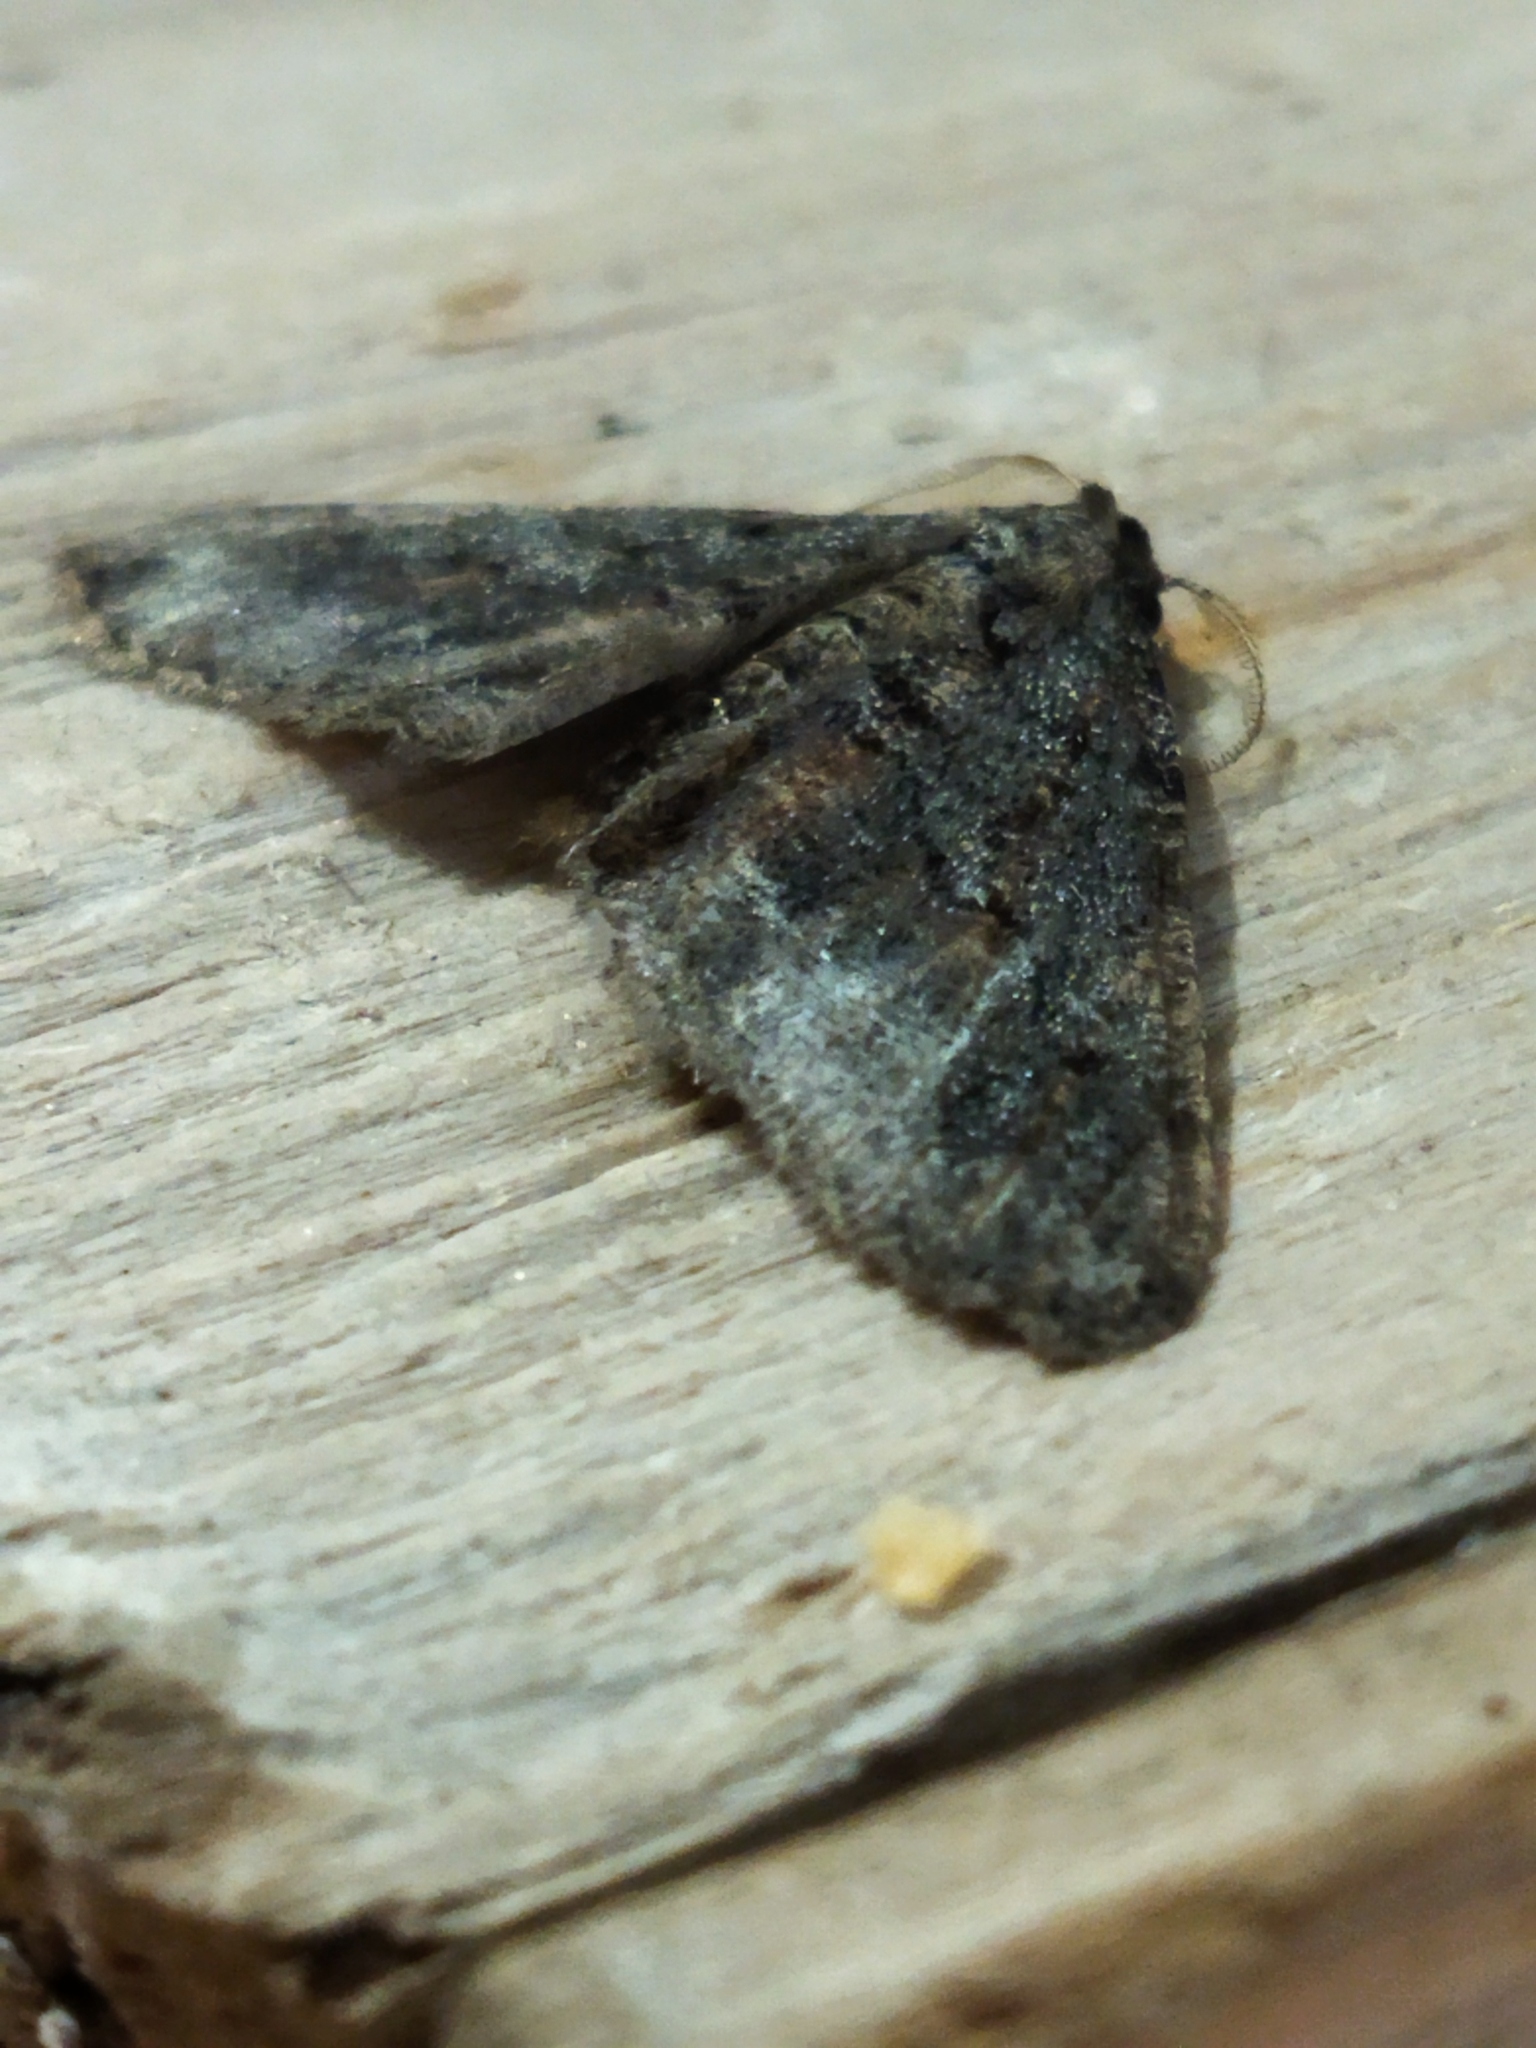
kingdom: Animalia
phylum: Arthropoda
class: Insecta
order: Lepidoptera
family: Geometridae
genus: Agriopis
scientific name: Agriopis bajaria
